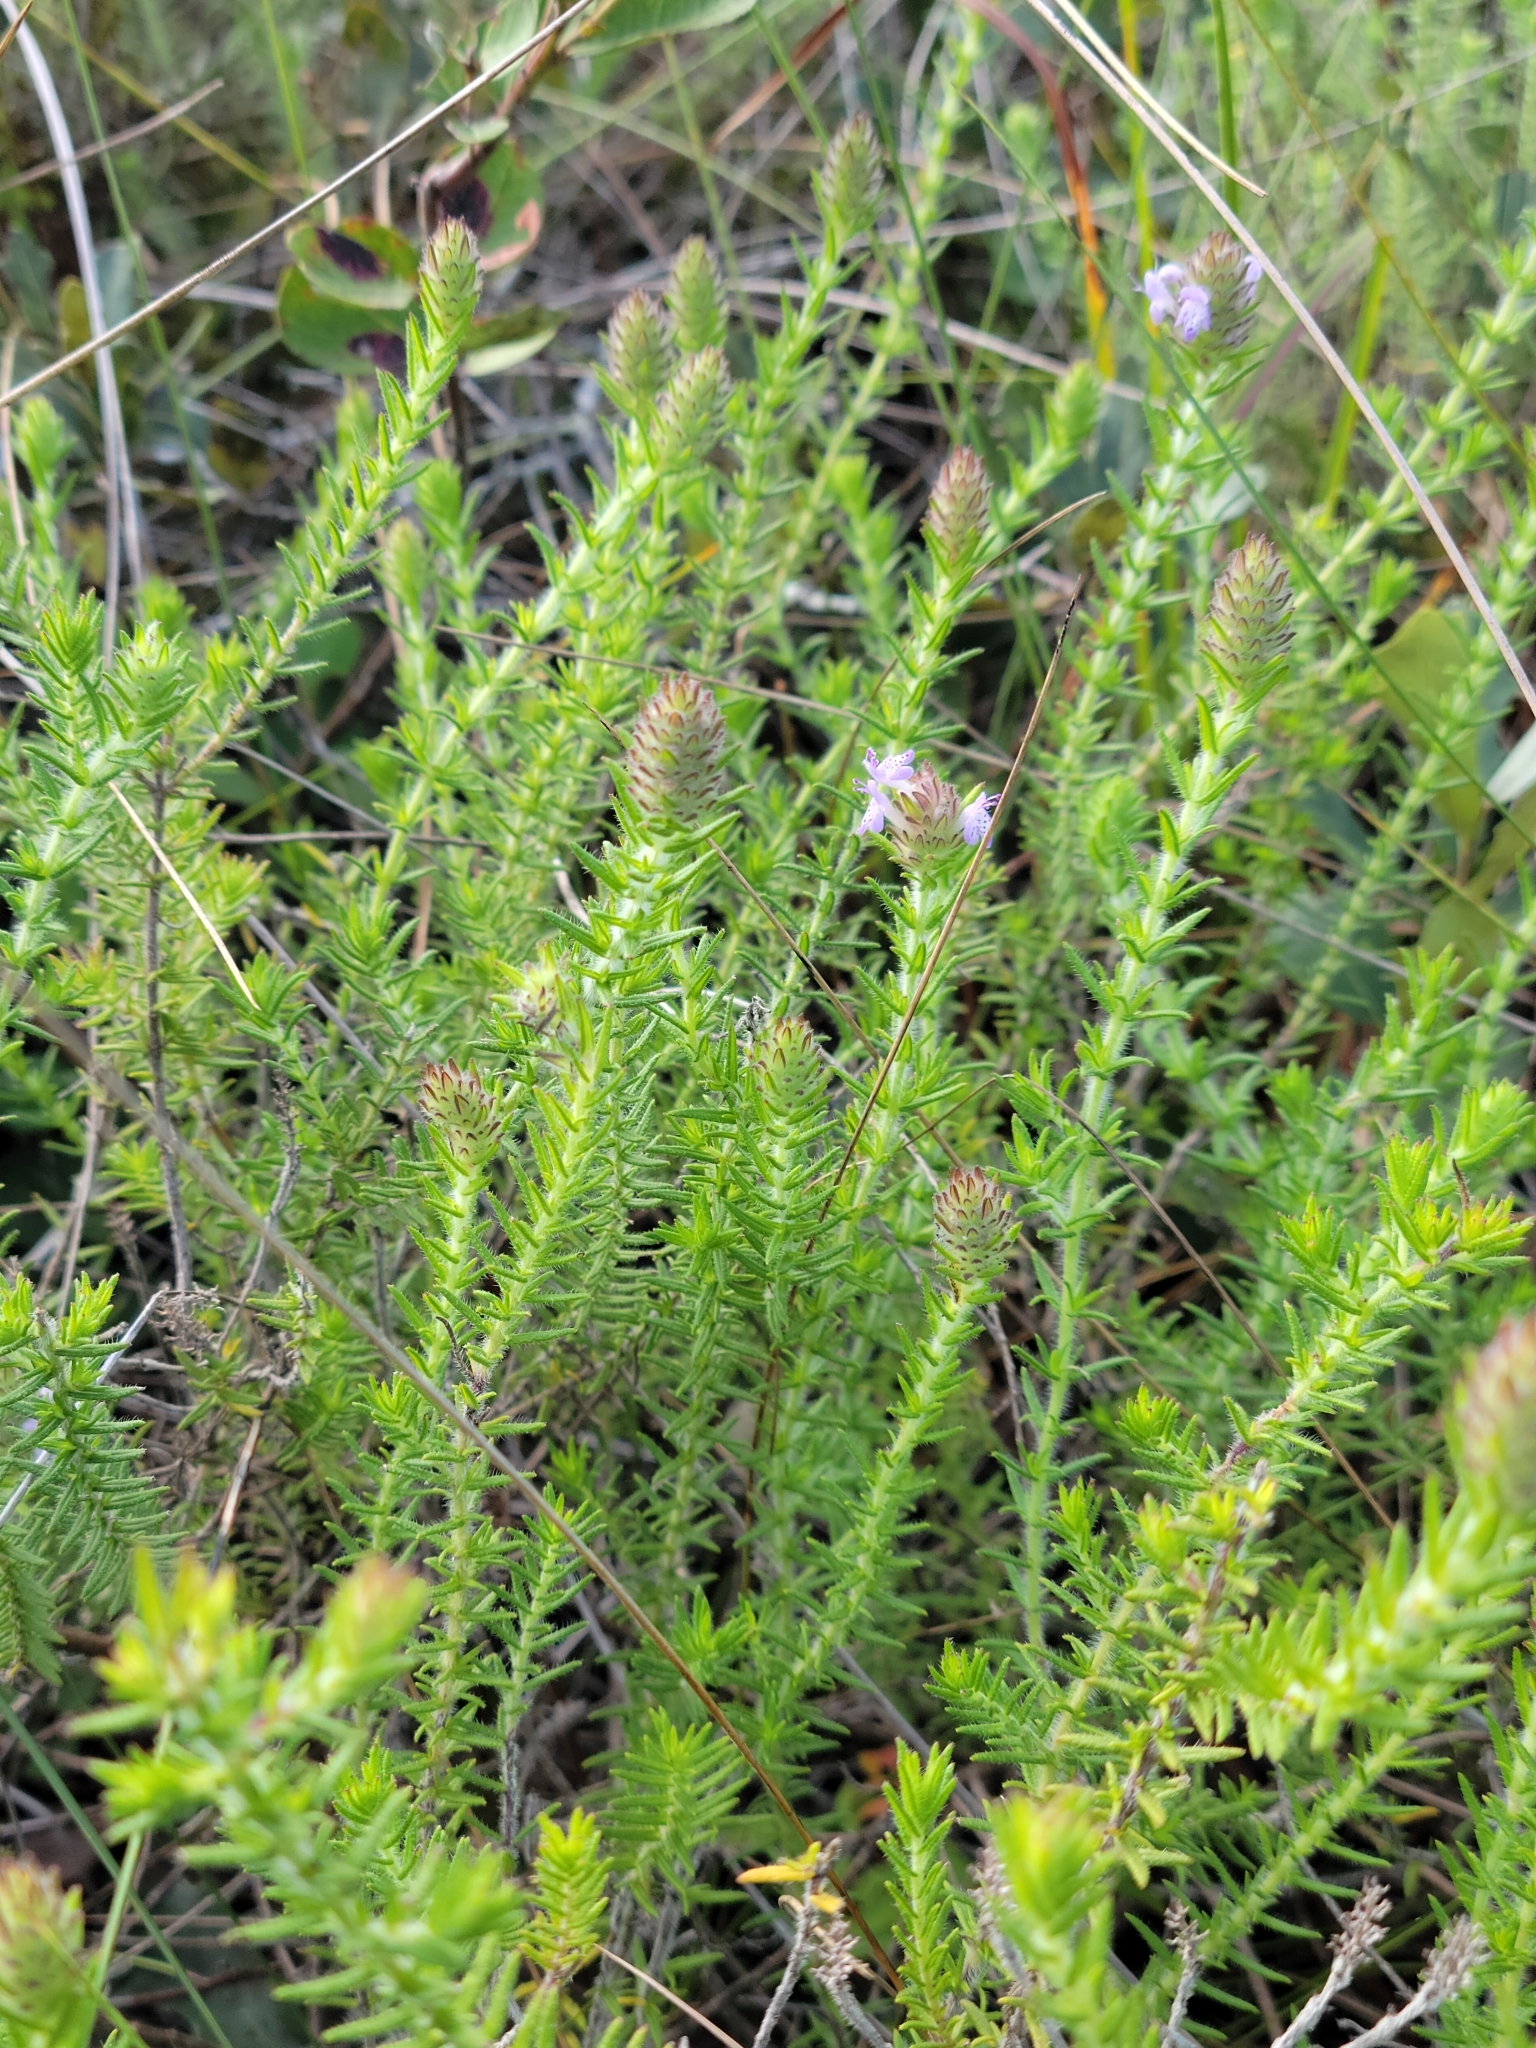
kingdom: Plantae
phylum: Tracheophyta
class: Magnoliopsida
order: Lamiales
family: Lamiaceae
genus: Piloblephis
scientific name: Piloblephis rigida
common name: Wild pennyroyal
